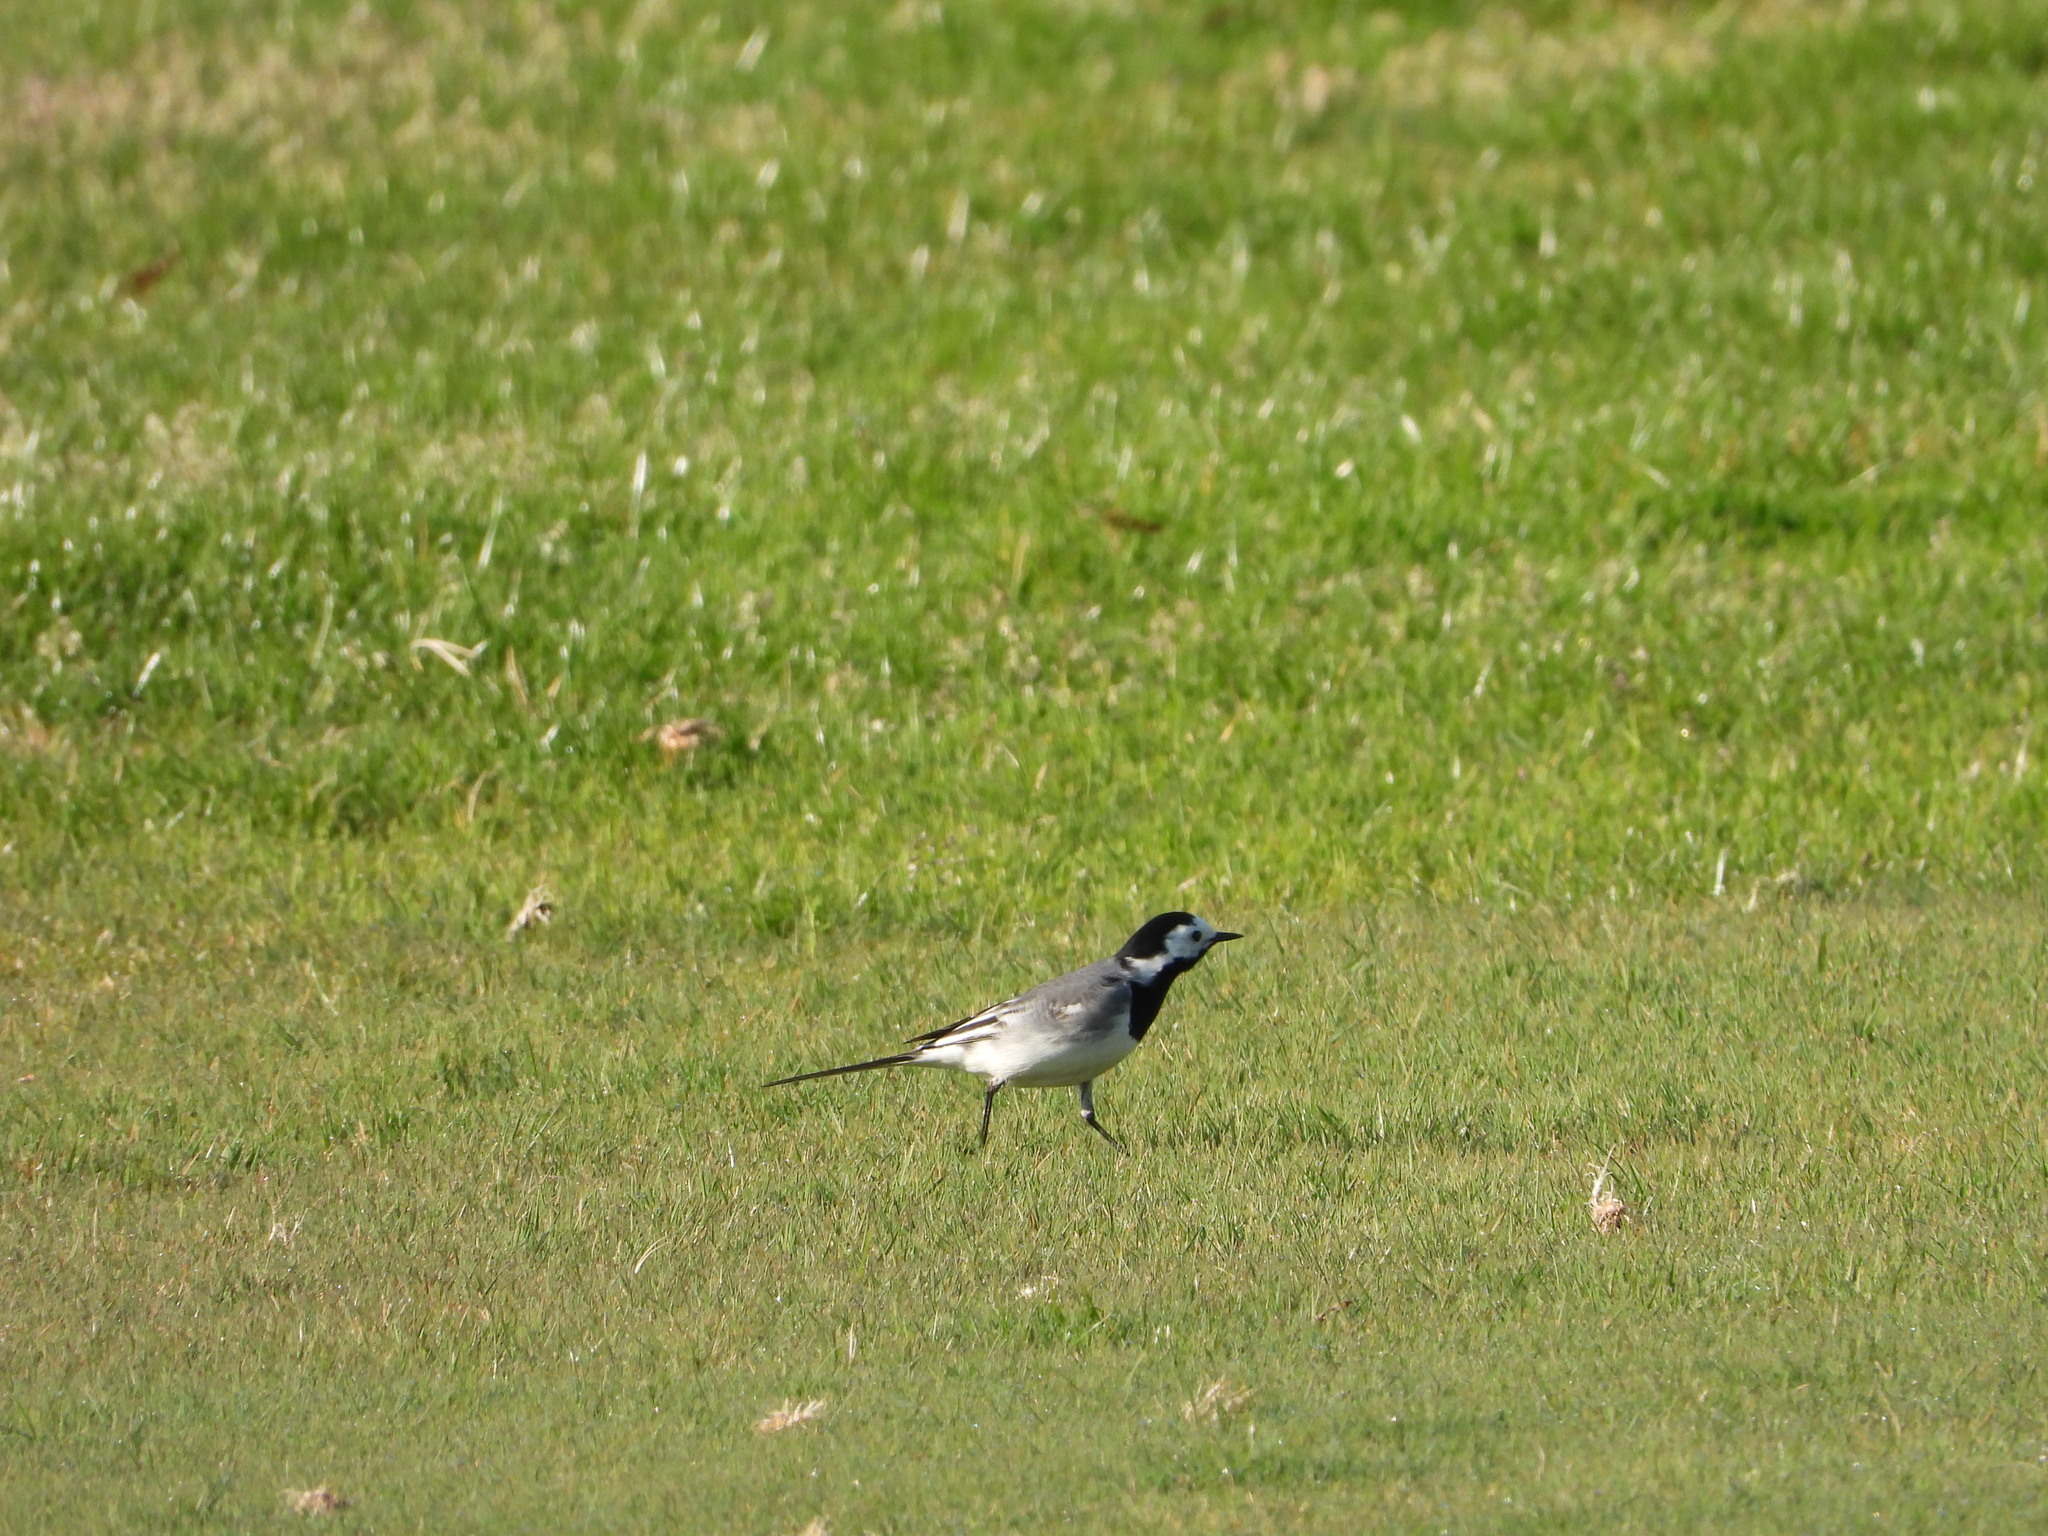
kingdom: Animalia
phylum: Chordata
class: Aves
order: Passeriformes
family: Motacillidae
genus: Motacilla
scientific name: Motacilla alba
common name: White wagtail
